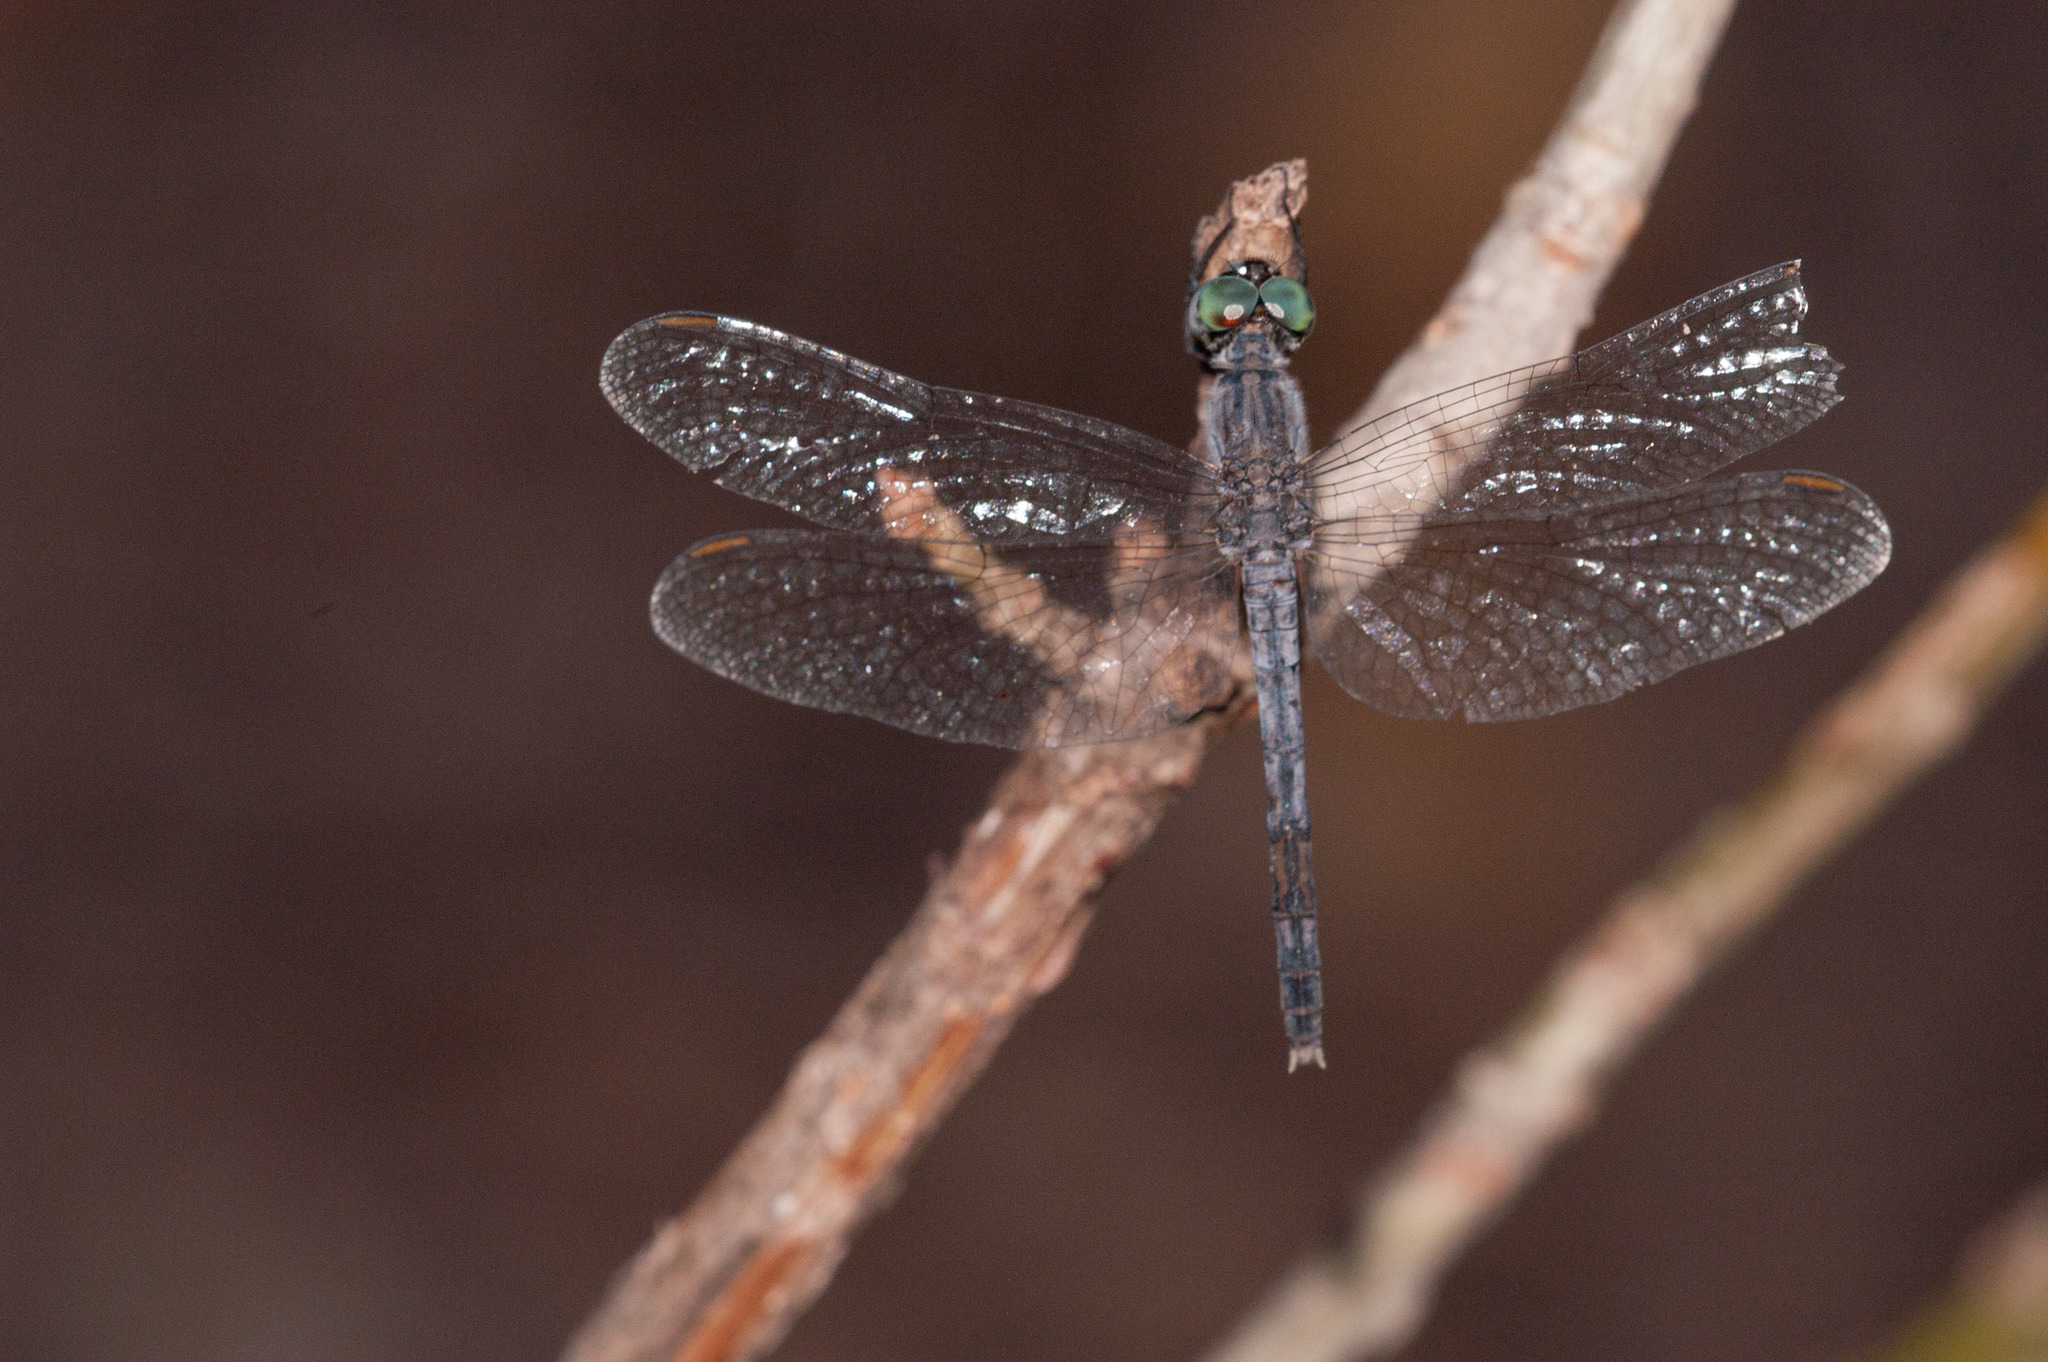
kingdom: Animalia
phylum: Arthropoda
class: Insecta
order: Odonata
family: Libellulidae
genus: Diplacodes
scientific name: Diplacodes trivialis
